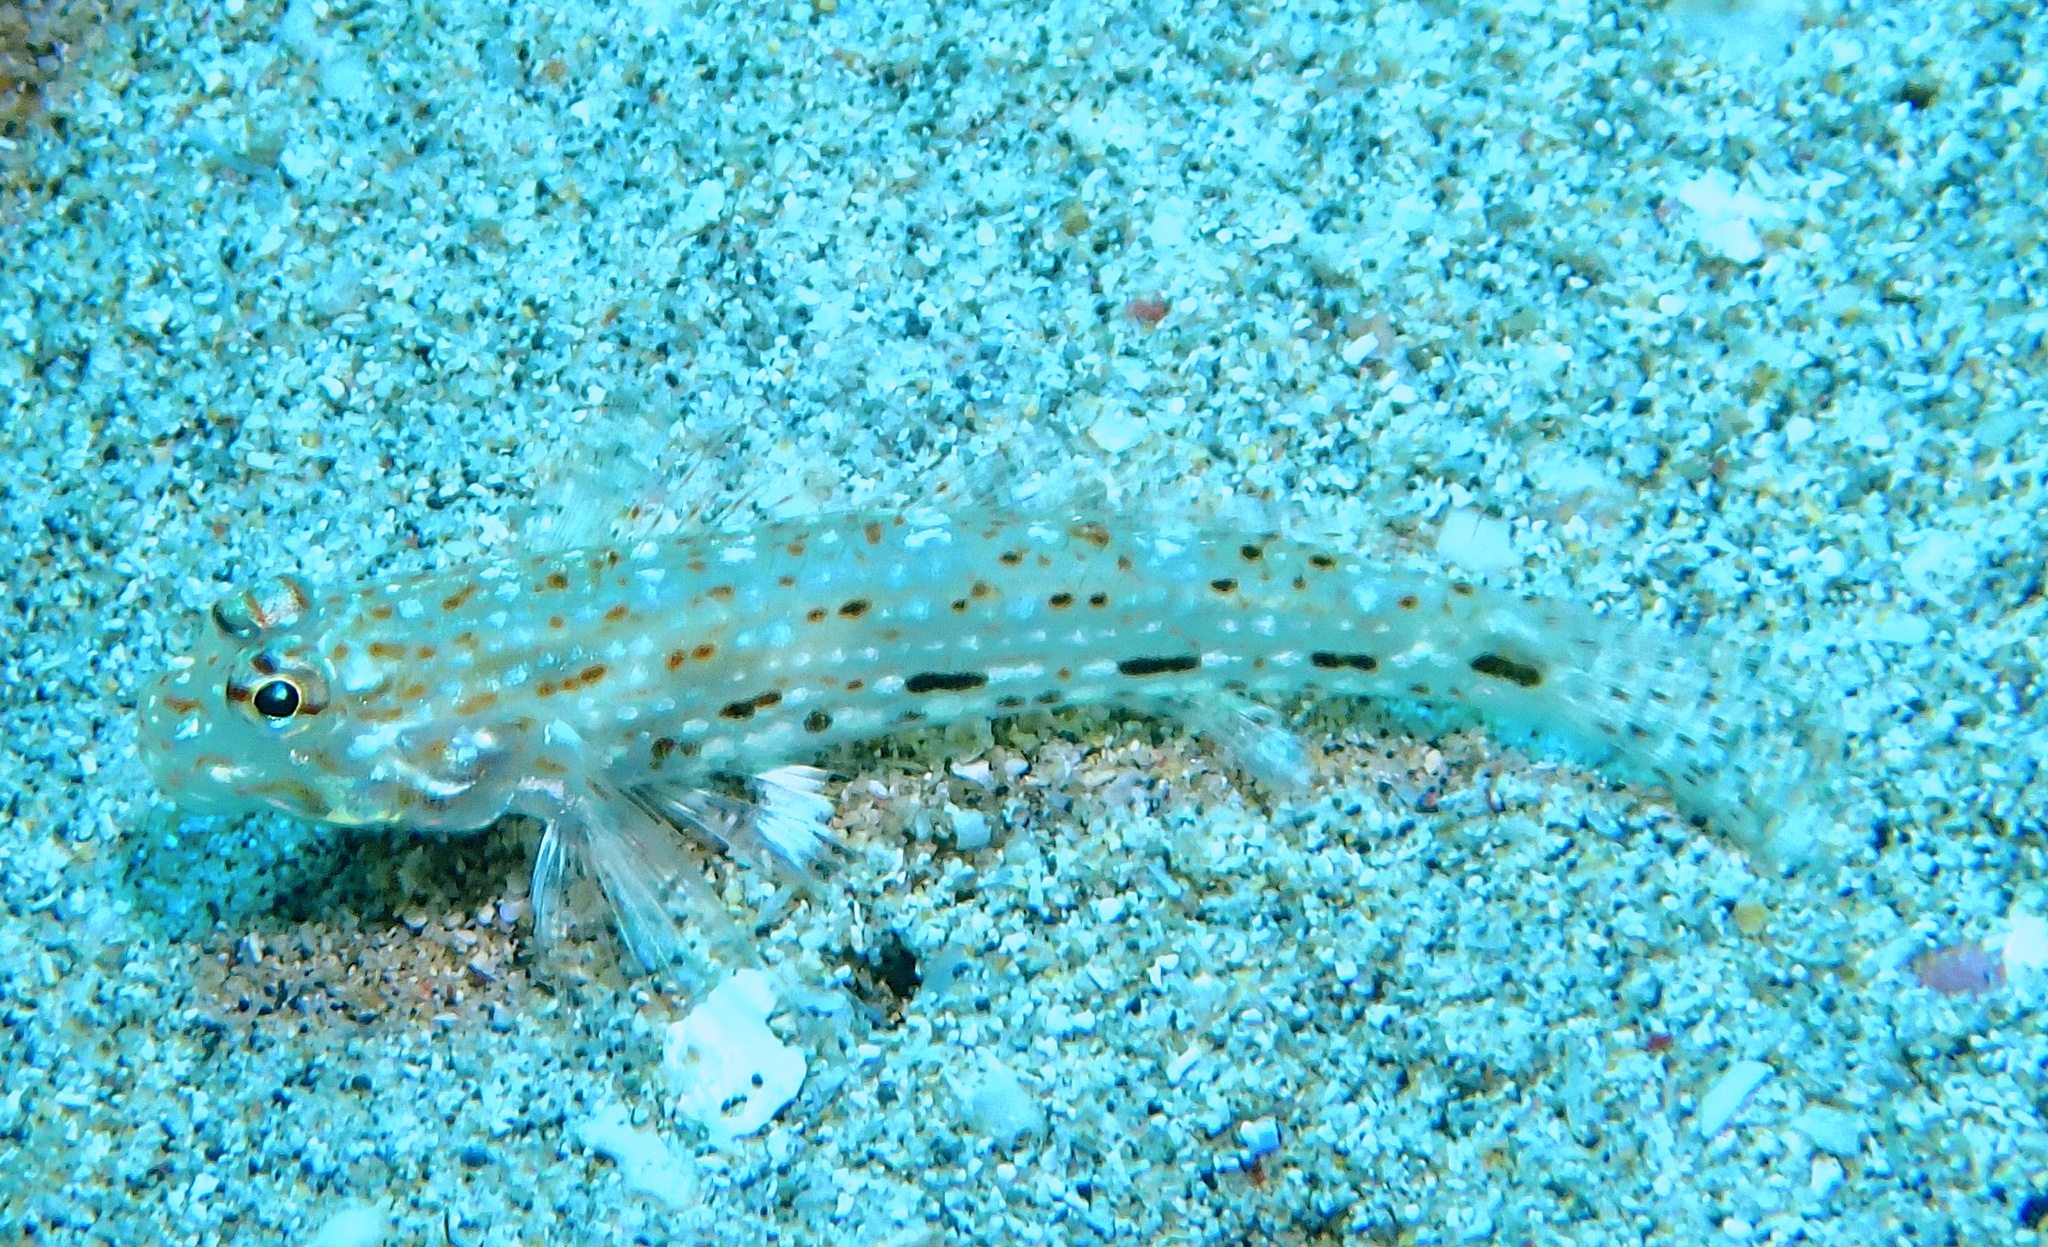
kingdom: Animalia
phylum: Chordata
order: Perciformes
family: Gobiidae
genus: Istigobius
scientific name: Istigobius decoratus
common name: Decorated goby
